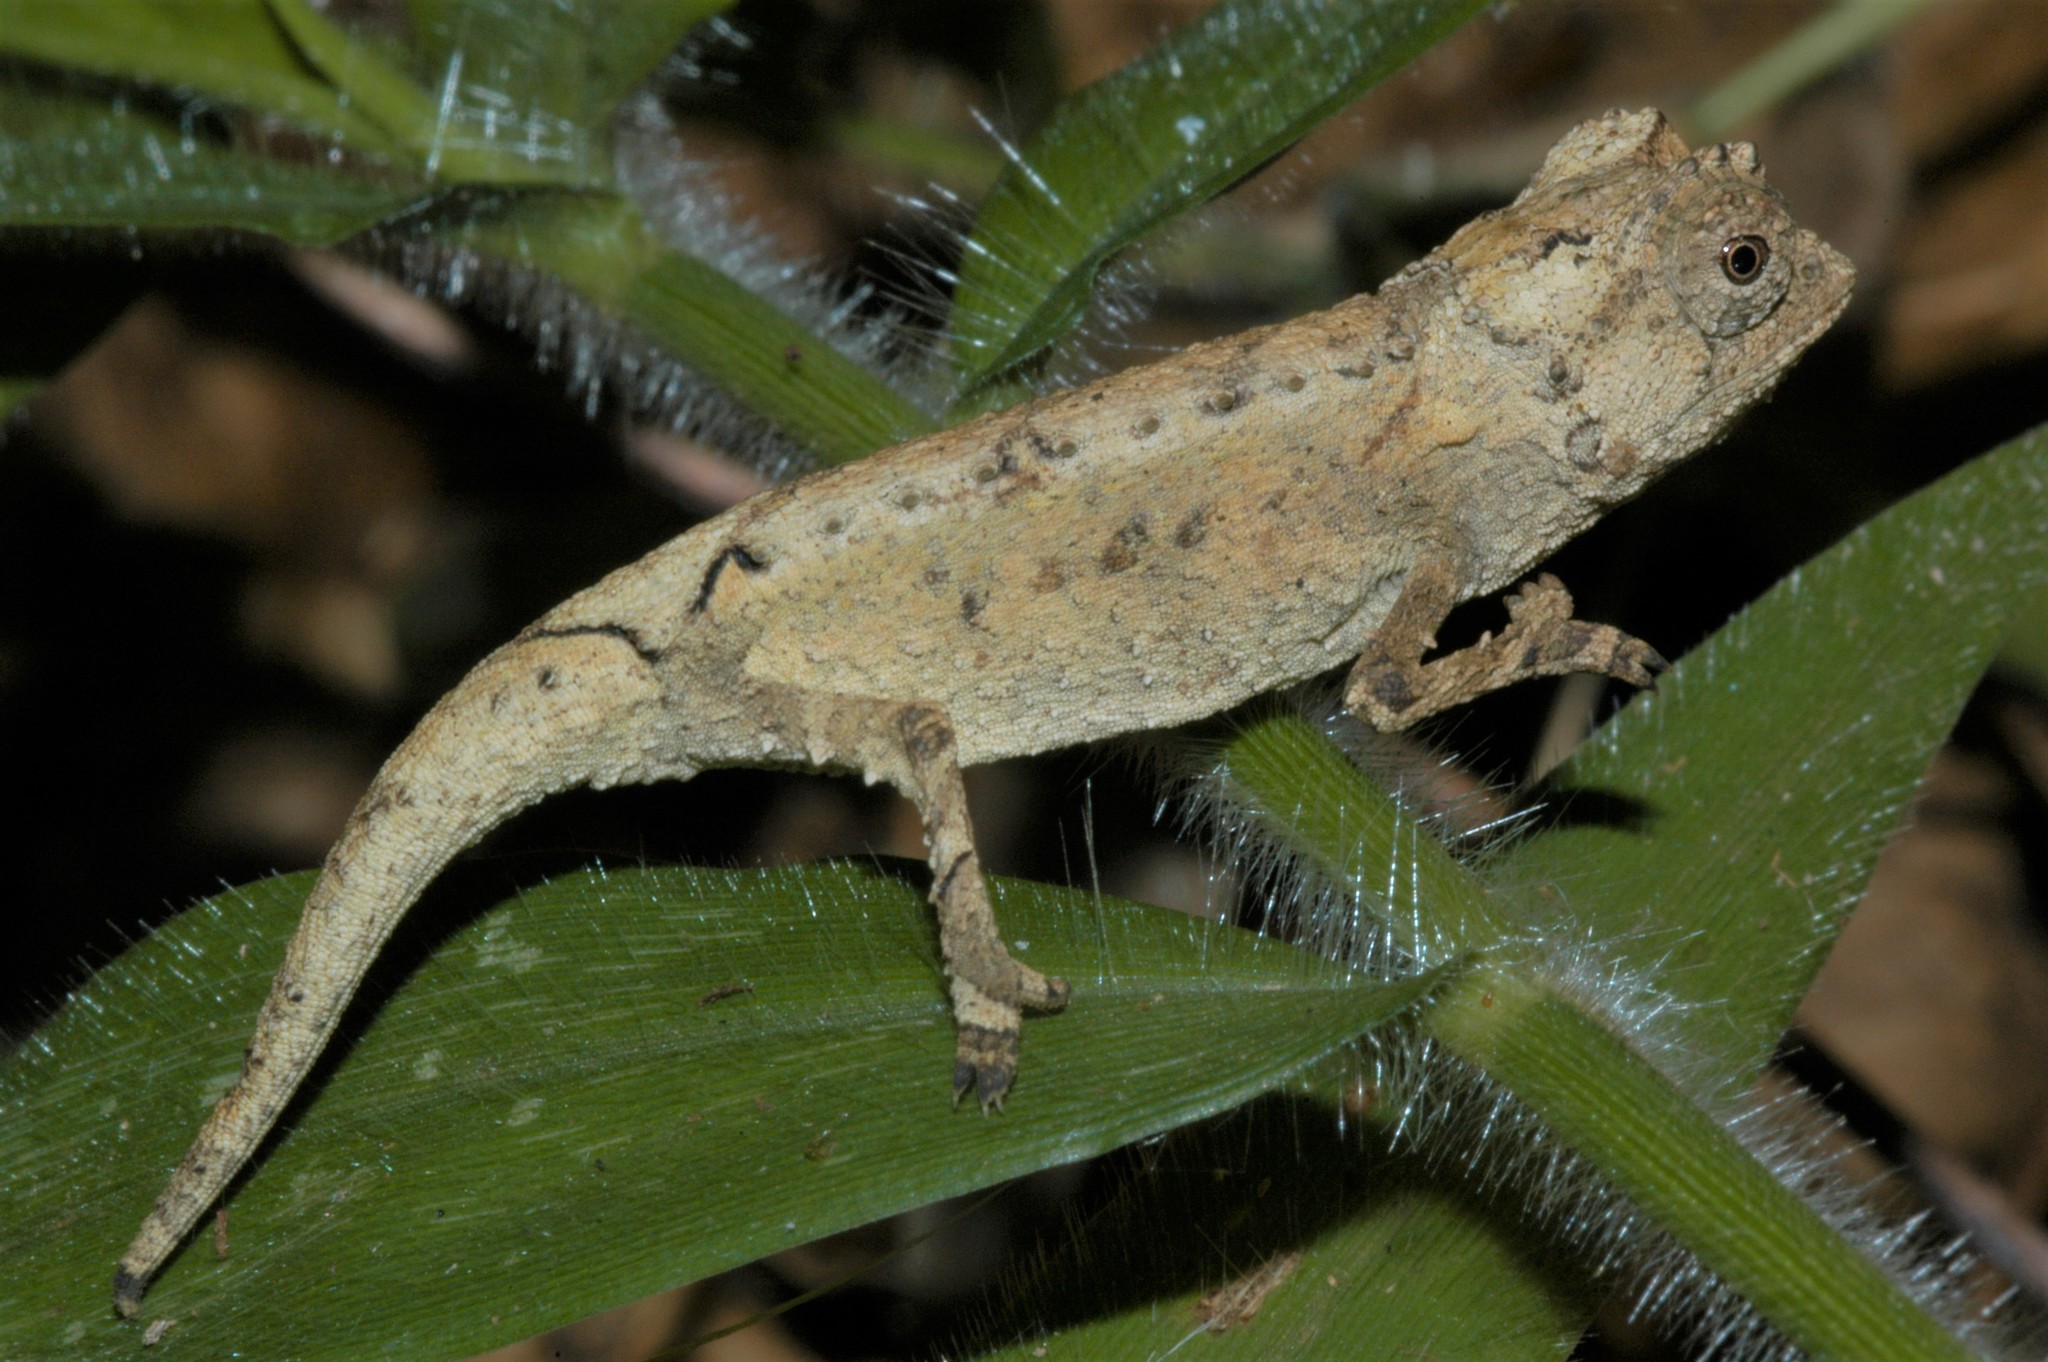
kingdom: Animalia
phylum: Chordata
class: Squamata
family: Chamaeleonidae
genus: Brookesia
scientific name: Brookesia antakarana
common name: Antakarana leaf chameleon
